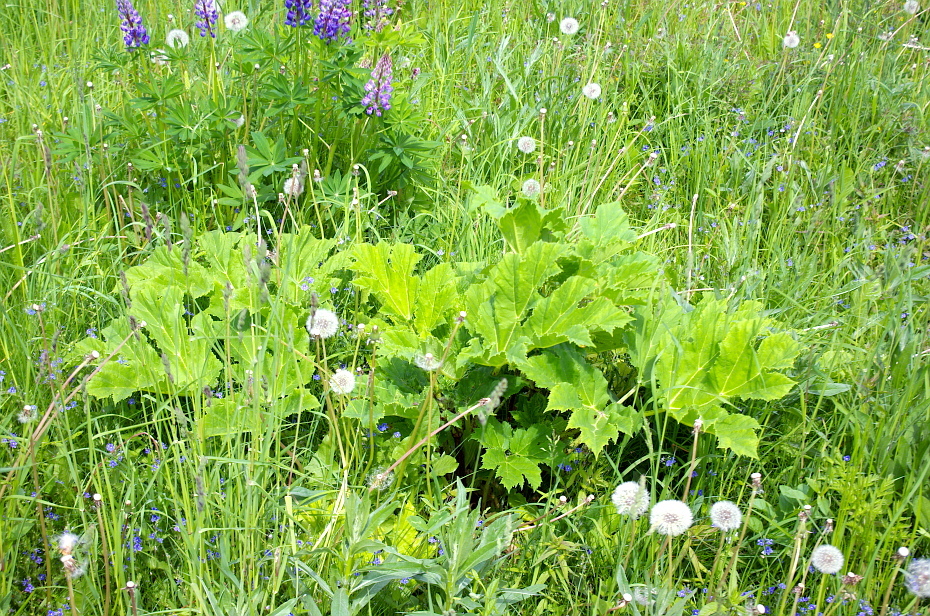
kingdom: Plantae
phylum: Tracheophyta
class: Magnoliopsida
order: Apiales
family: Apiaceae
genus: Heracleum
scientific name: Heracleum sosnowskyi
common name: Sosnowsky's hogweed
